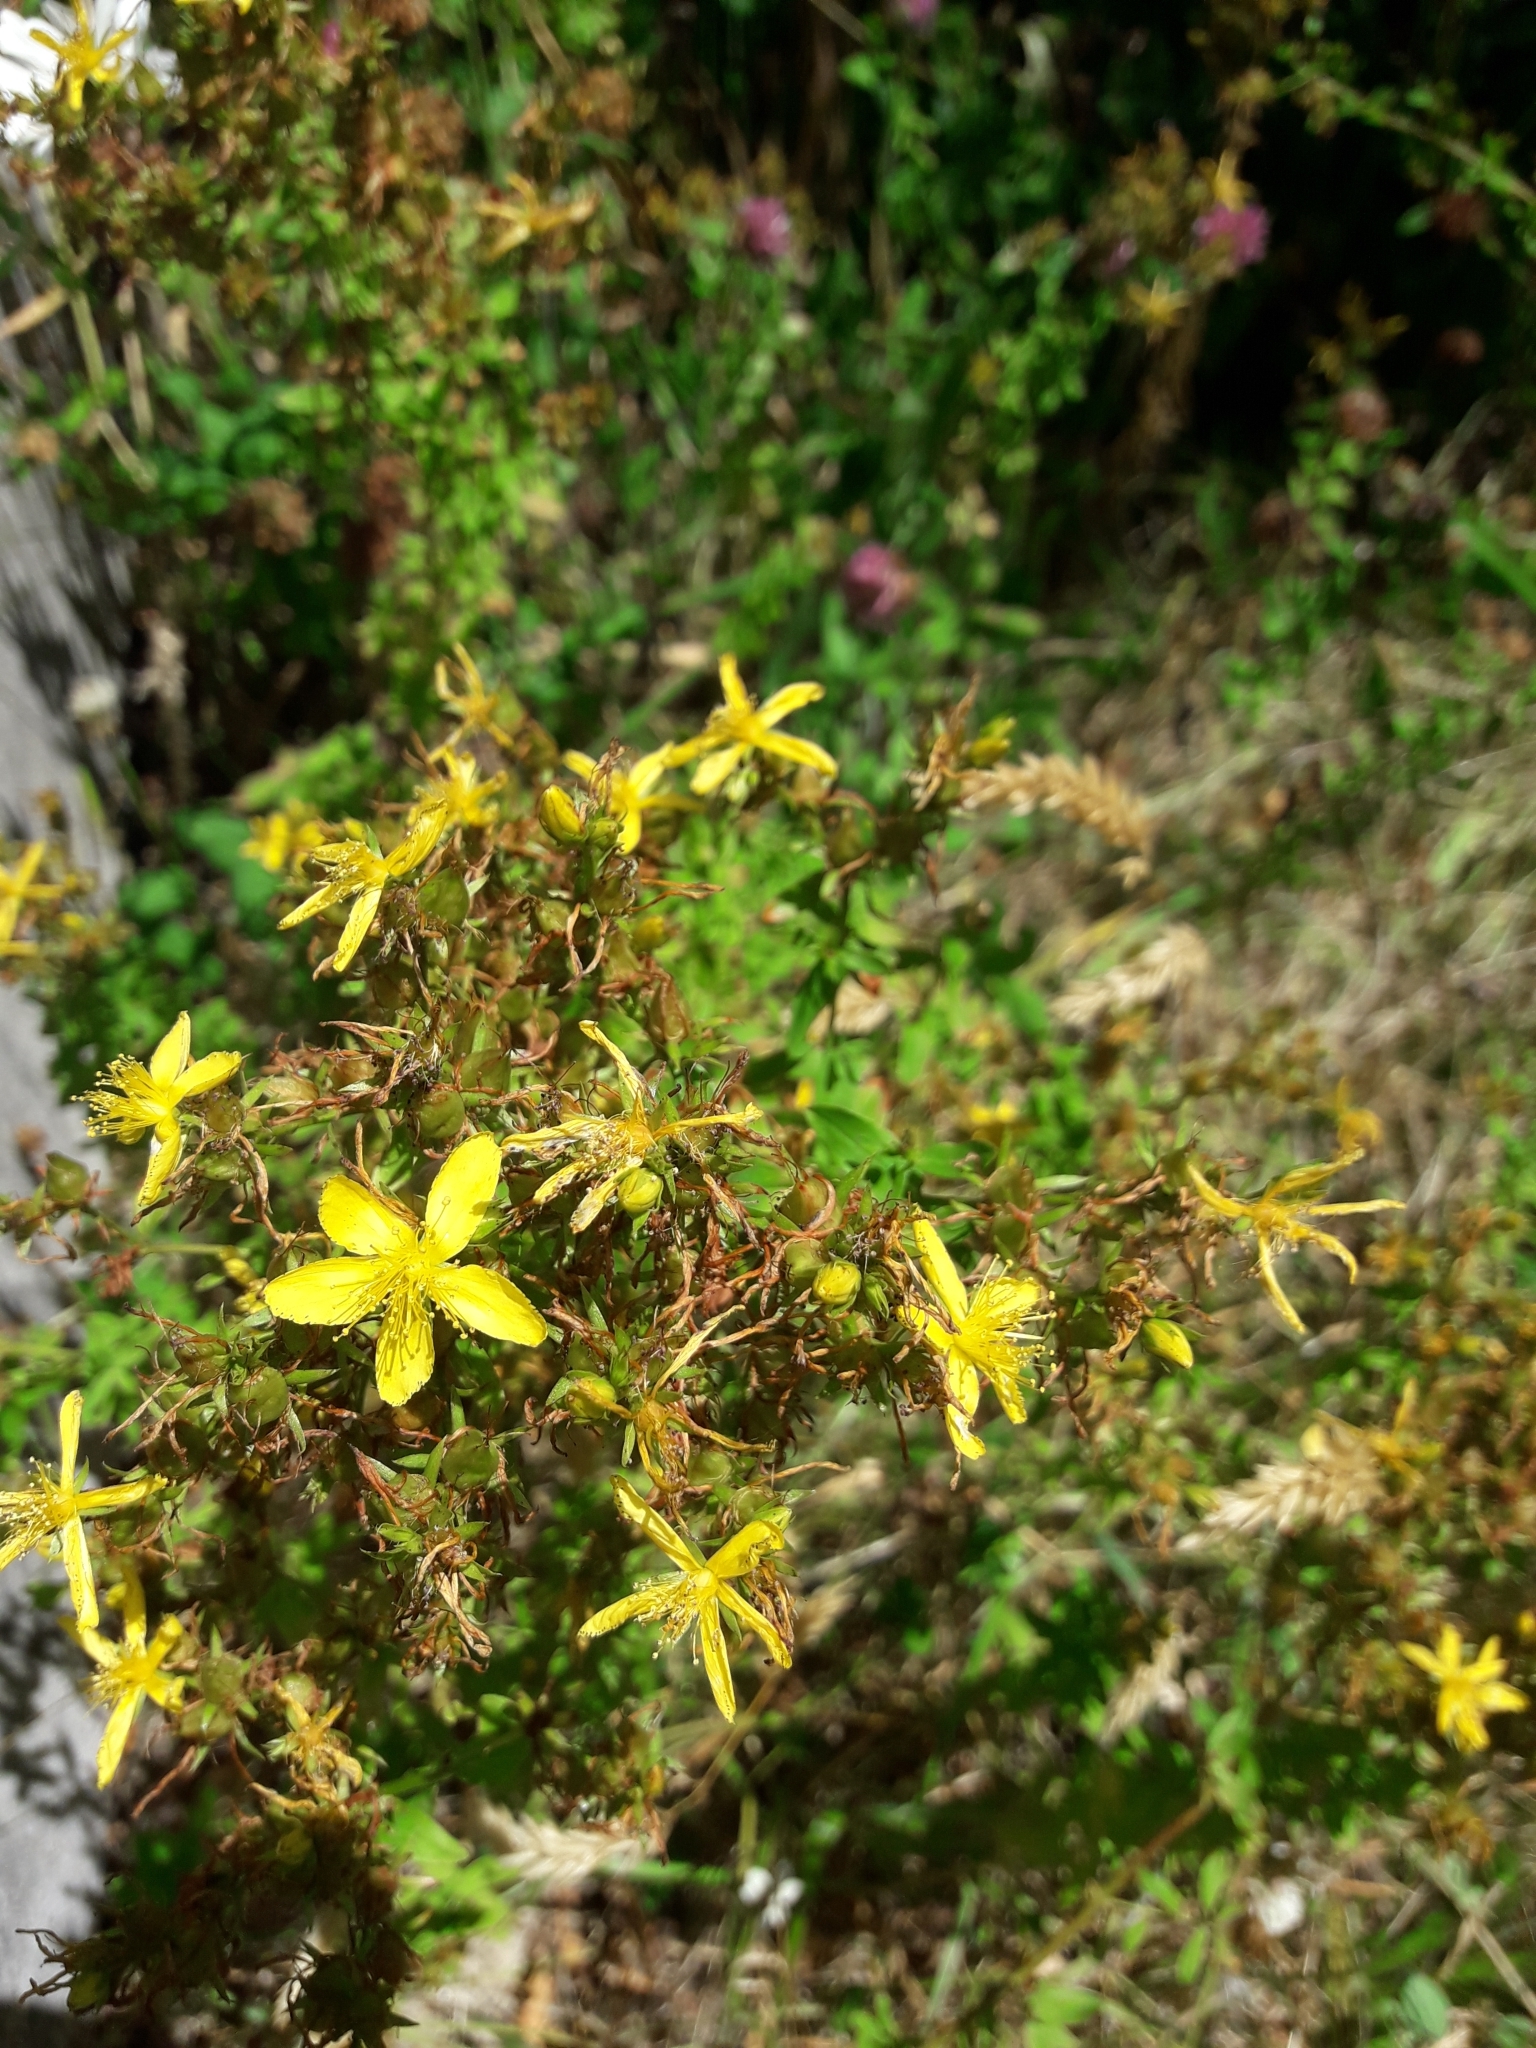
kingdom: Plantae
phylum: Tracheophyta
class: Magnoliopsida
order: Malpighiales
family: Hypericaceae
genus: Hypericum
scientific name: Hypericum perforatum
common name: Common st. johnswort
